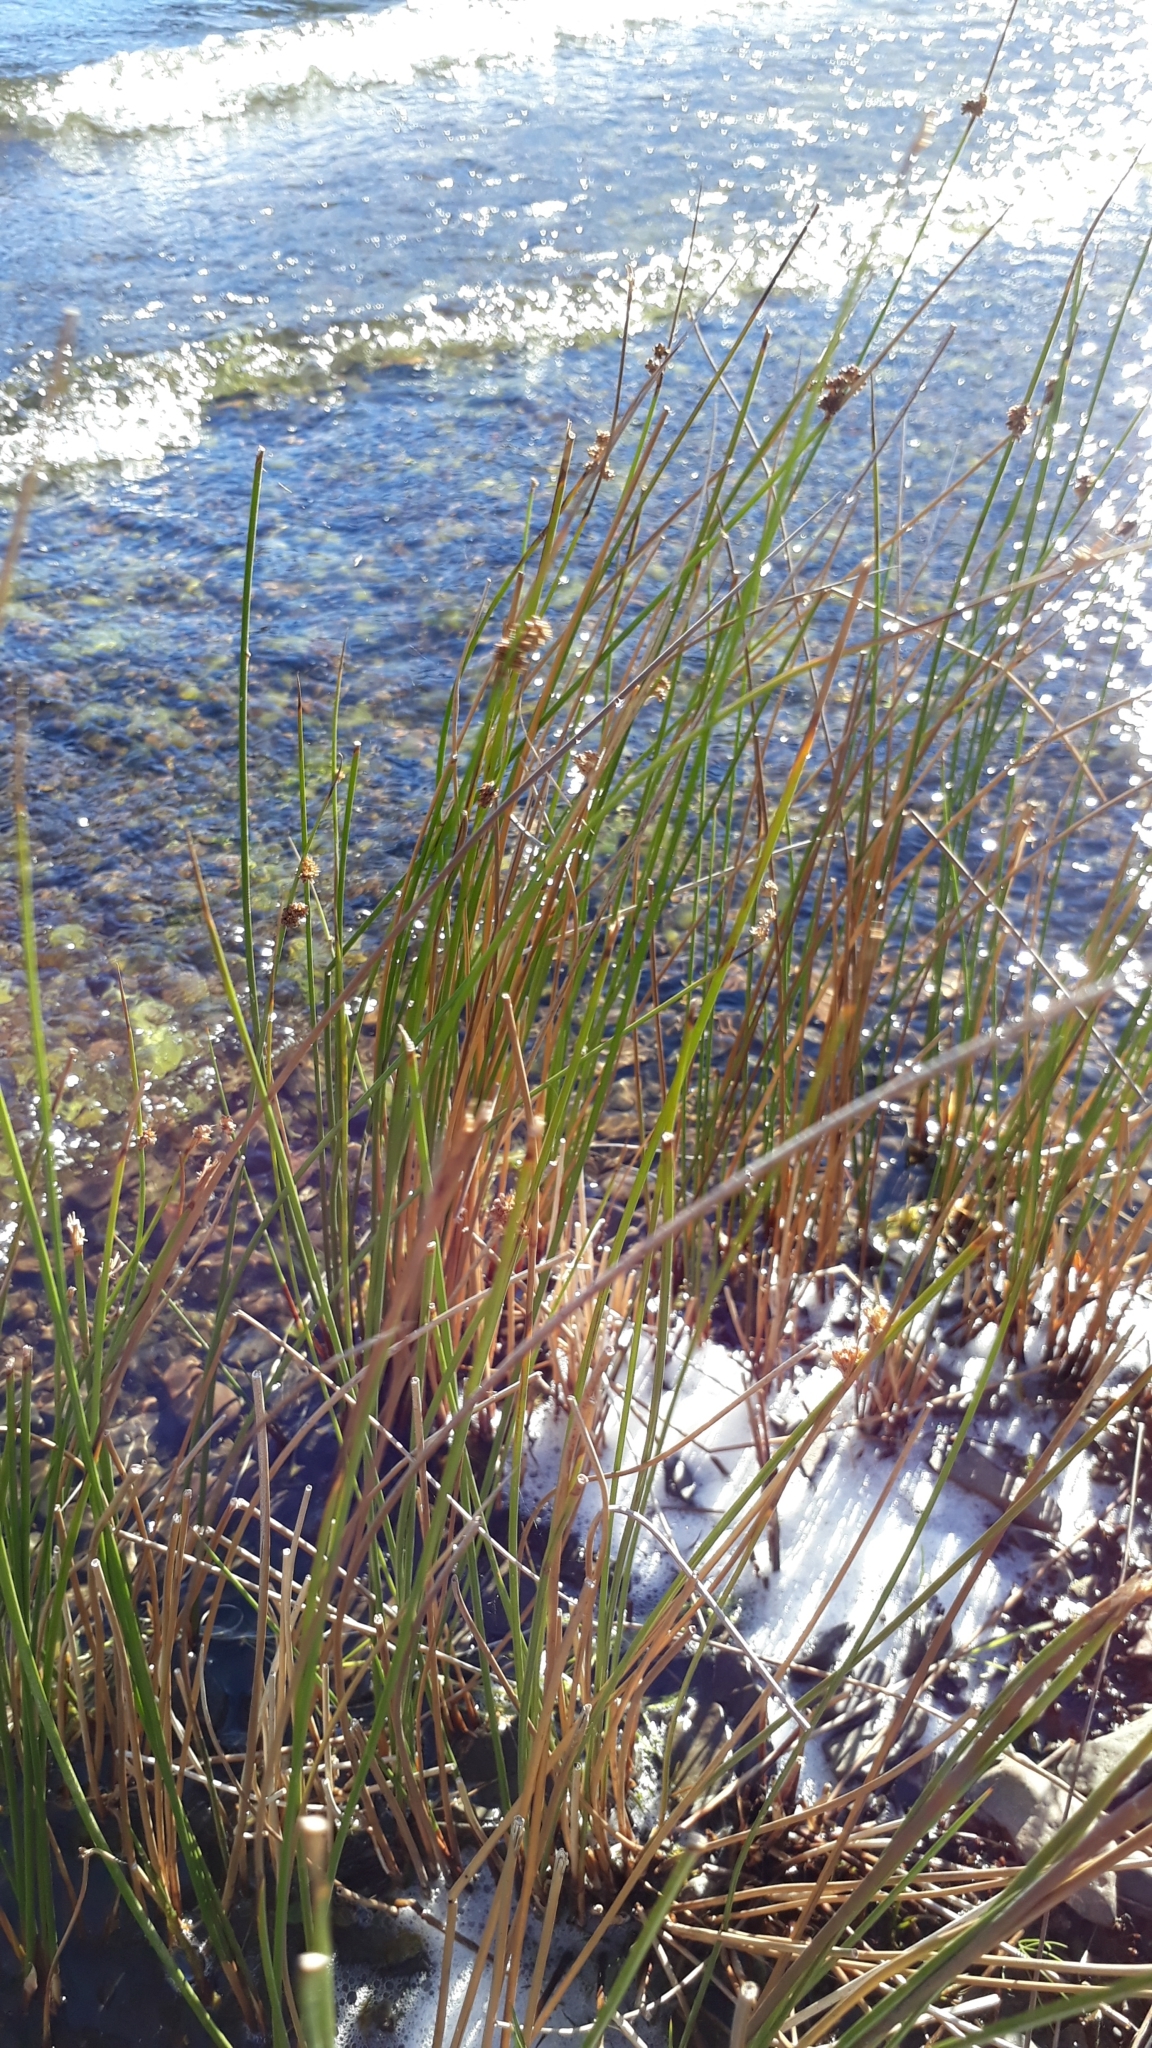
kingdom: Plantae
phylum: Tracheophyta
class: Liliopsida
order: Poales
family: Cyperaceae
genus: Ficinia
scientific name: Ficinia nodosa
